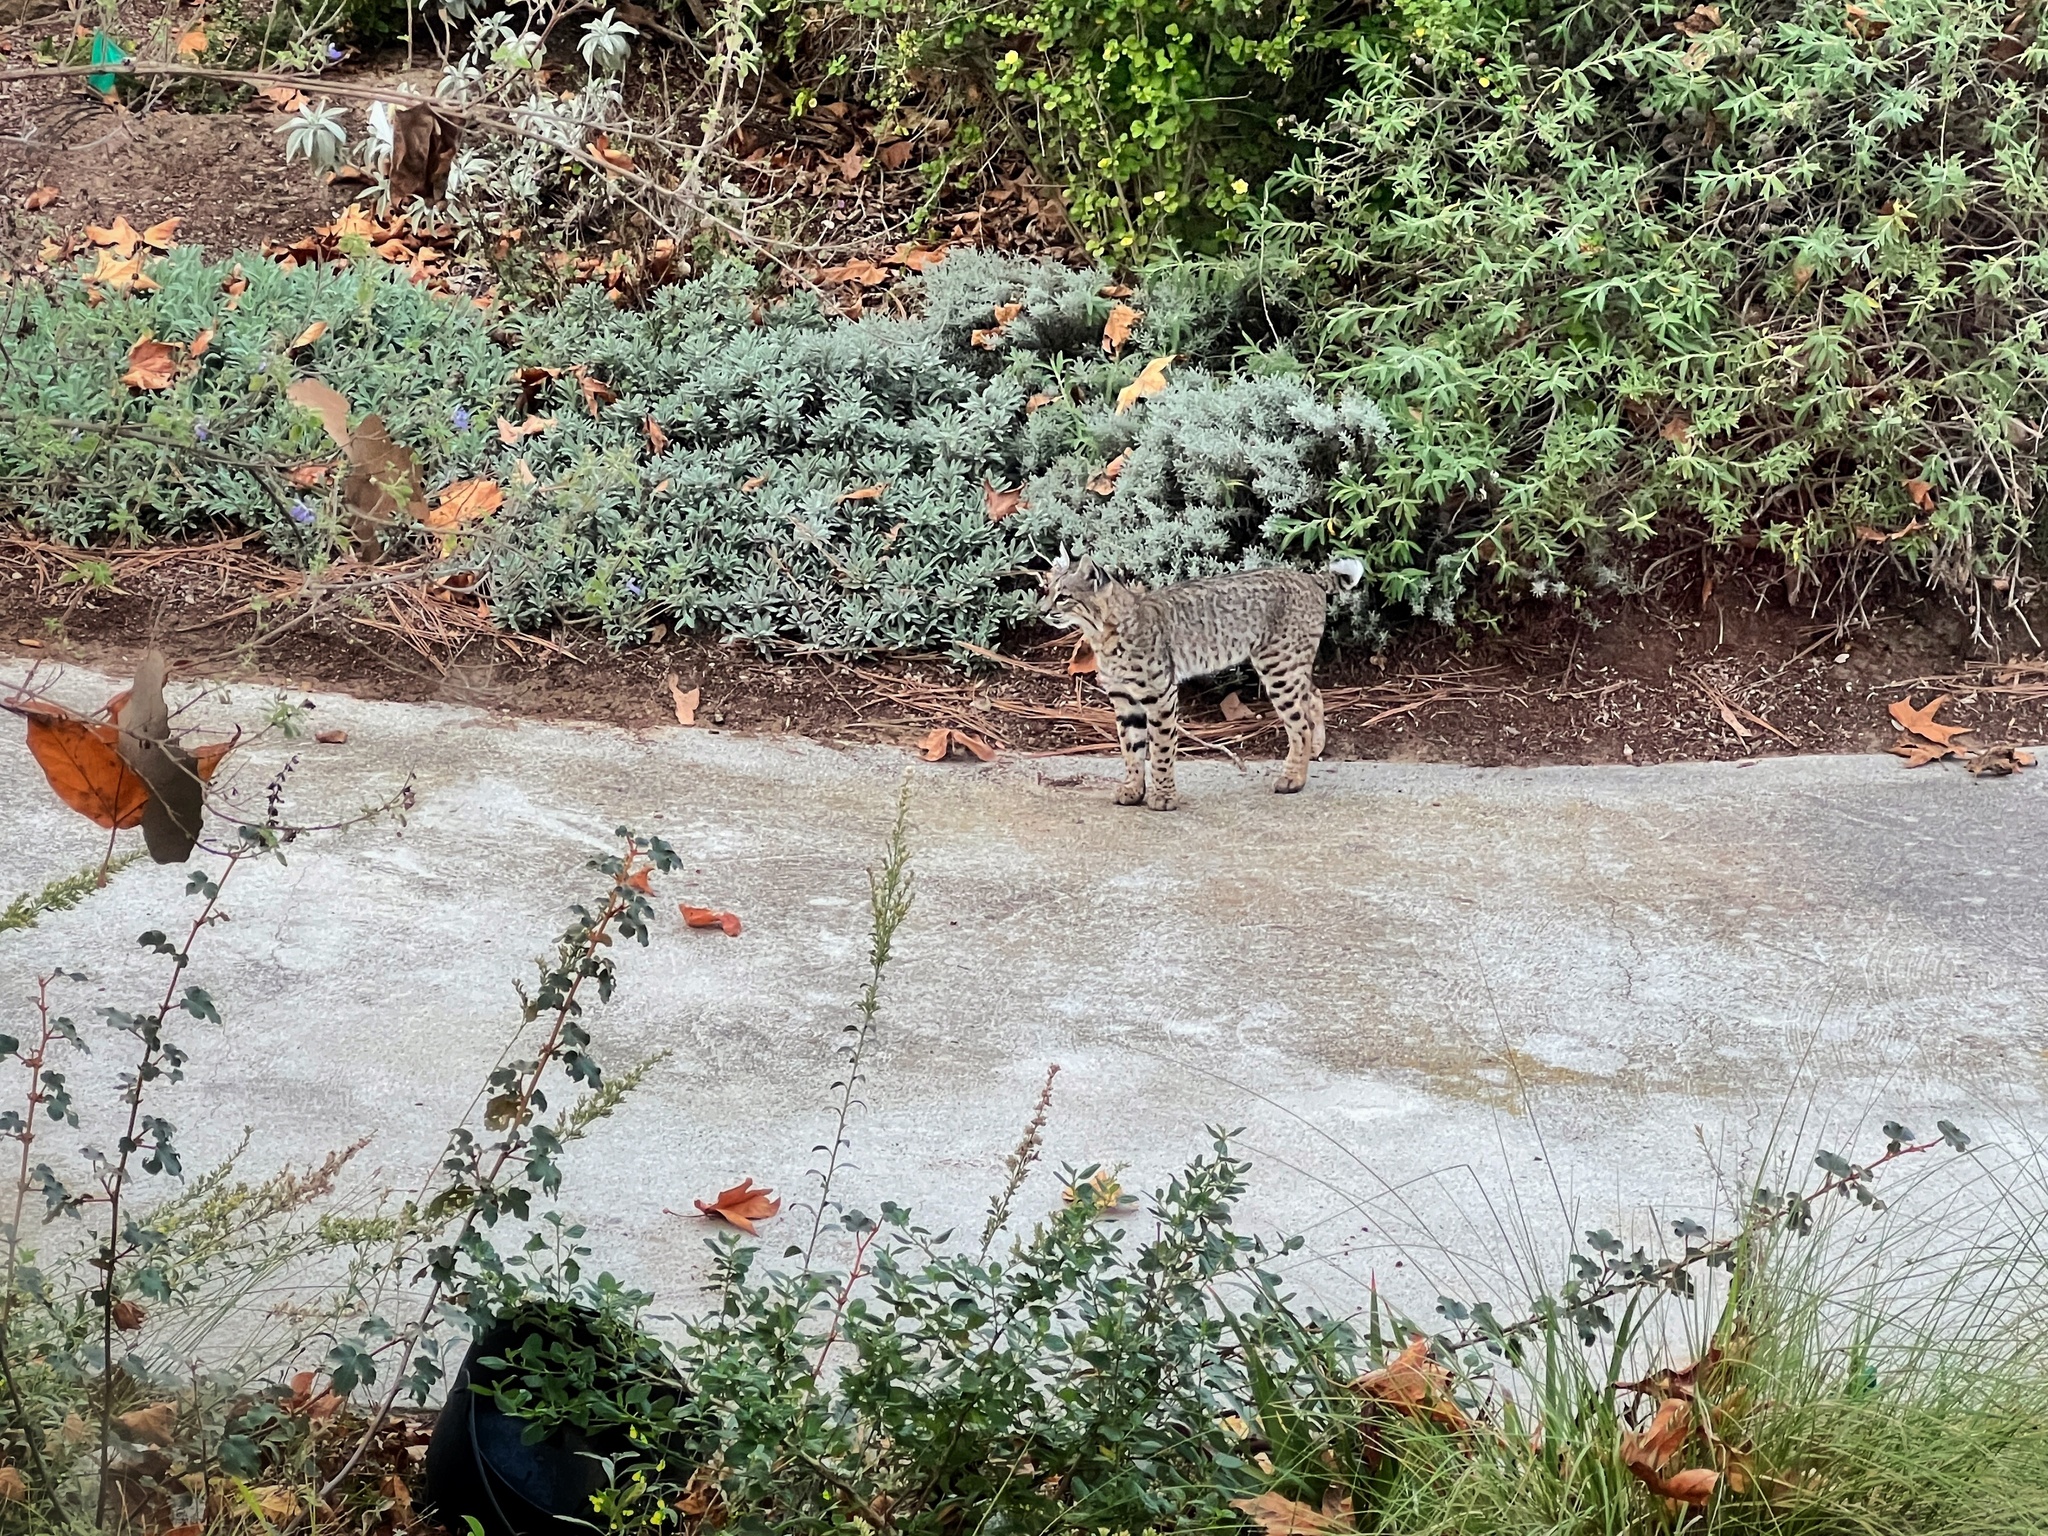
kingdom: Animalia
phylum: Chordata
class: Mammalia
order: Carnivora
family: Felidae
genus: Lynx
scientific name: Lynx rufus
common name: Bobcat
